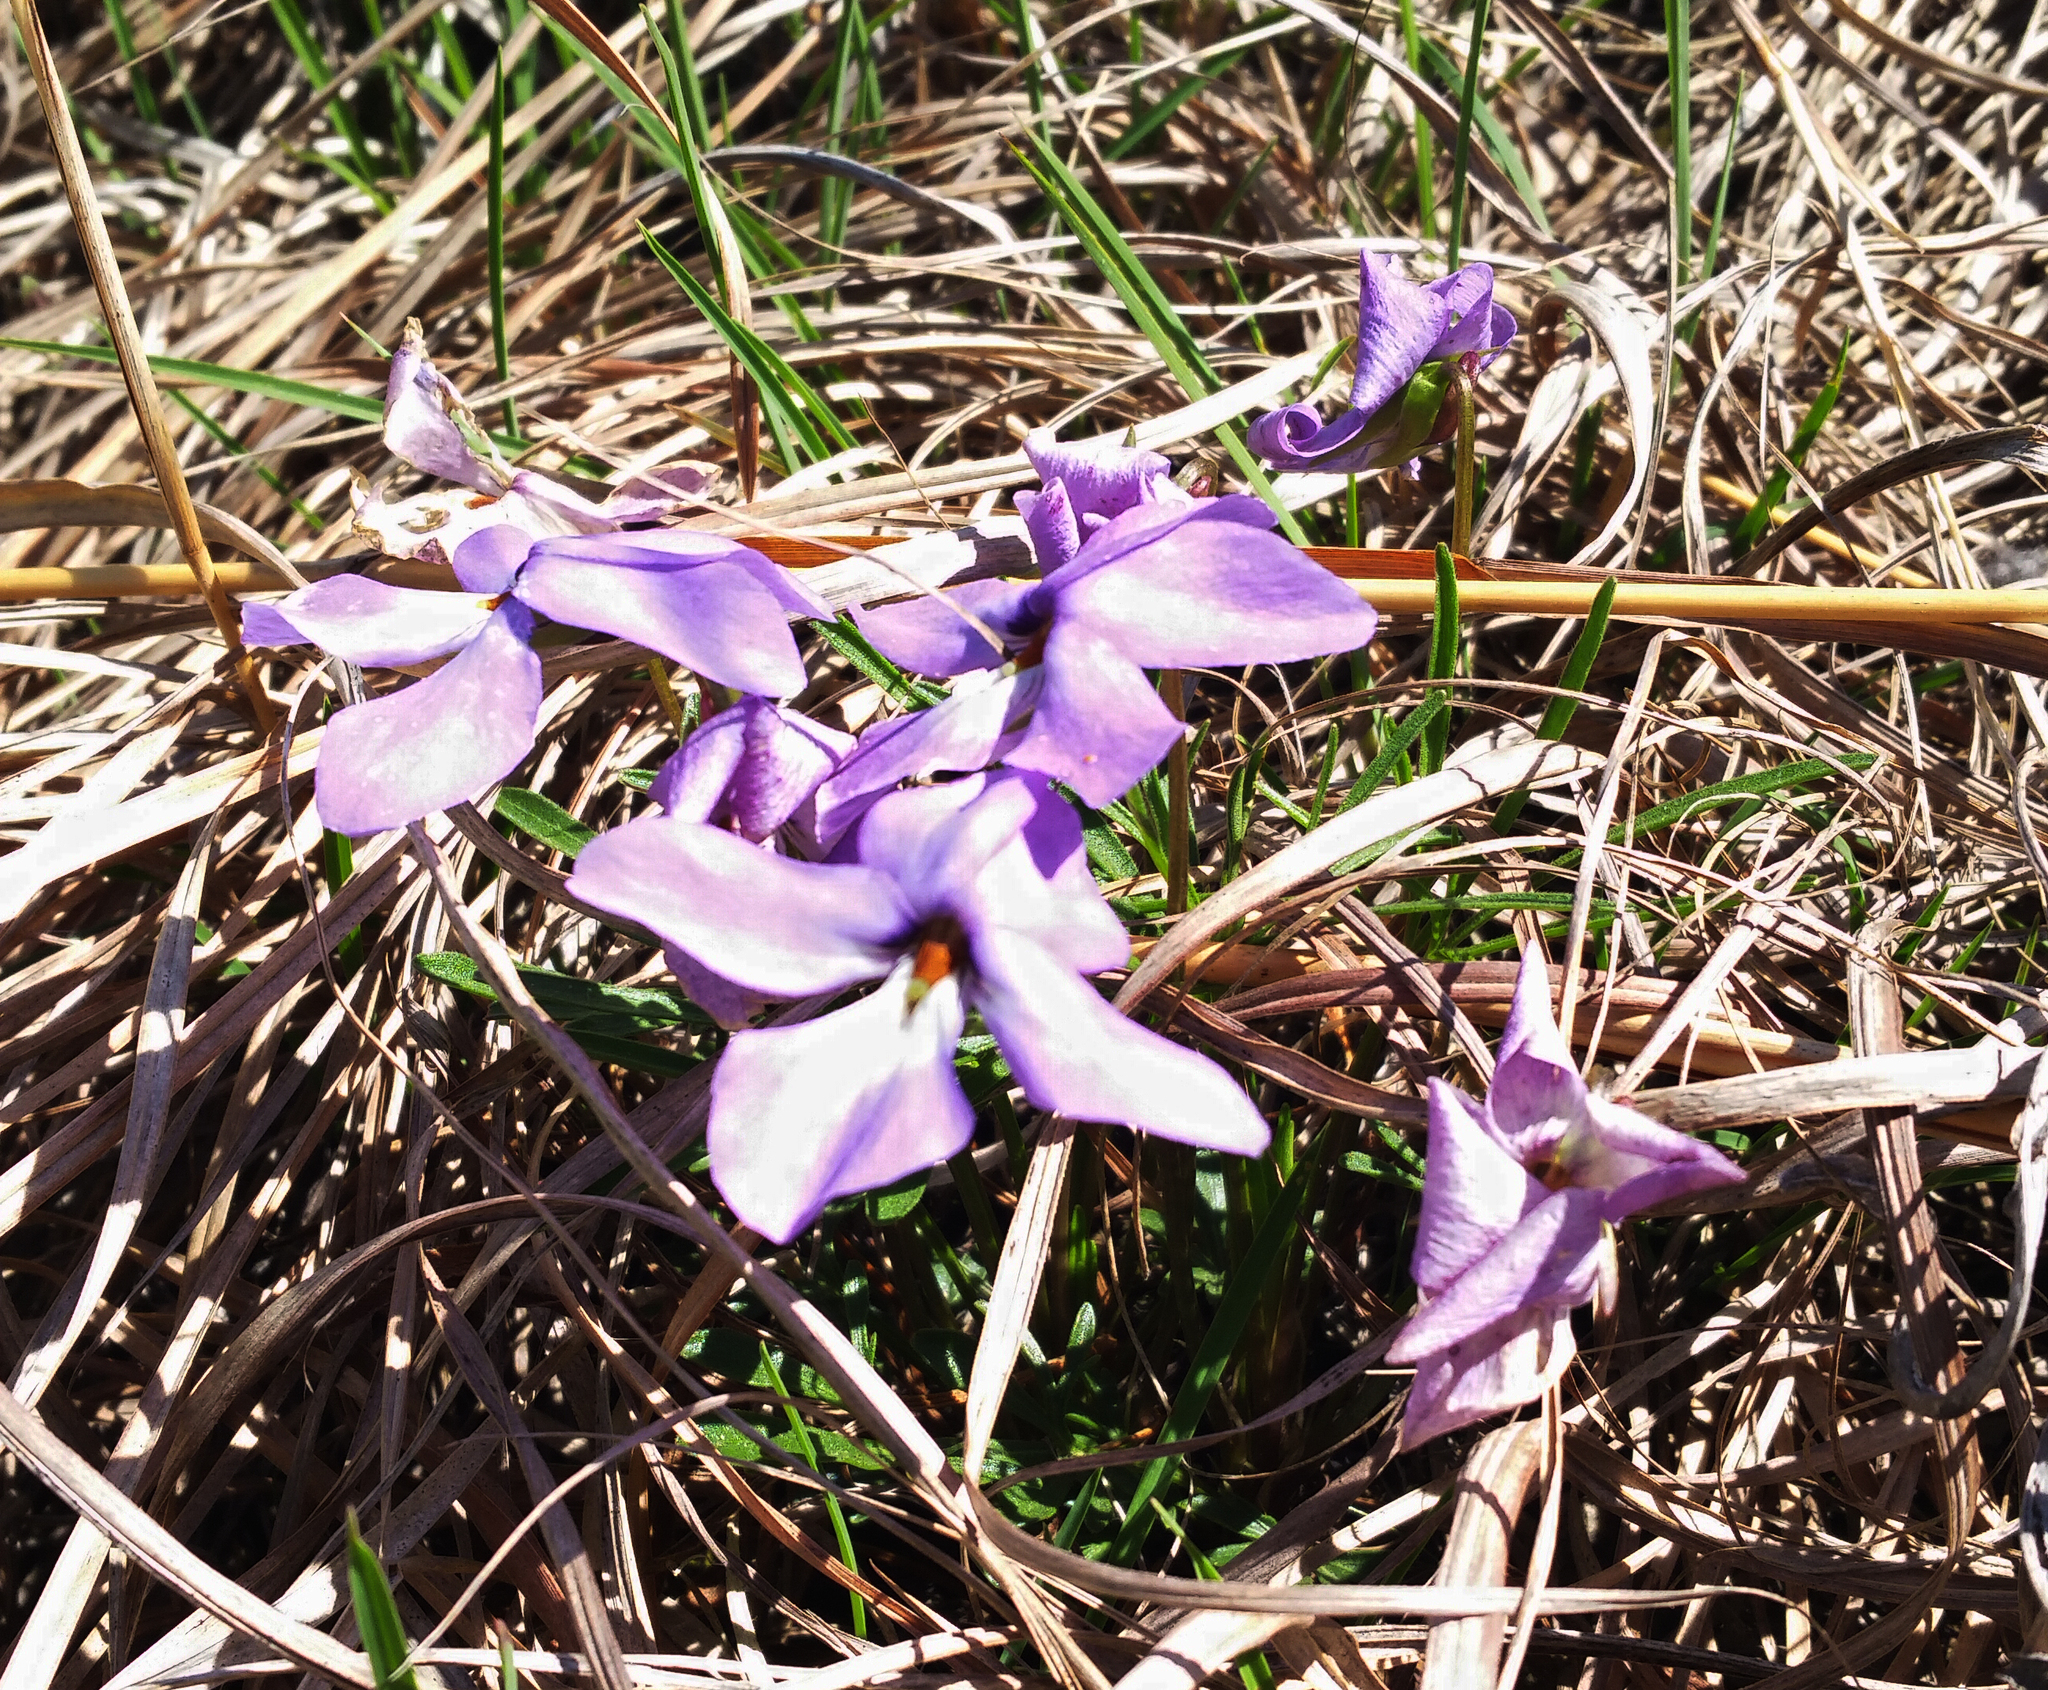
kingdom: Plantae
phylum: Tracheophyta
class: Magnoliopsida
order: Malpighiales
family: Violaceae
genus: Viola
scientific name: Viola pedata
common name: Pansy violet
